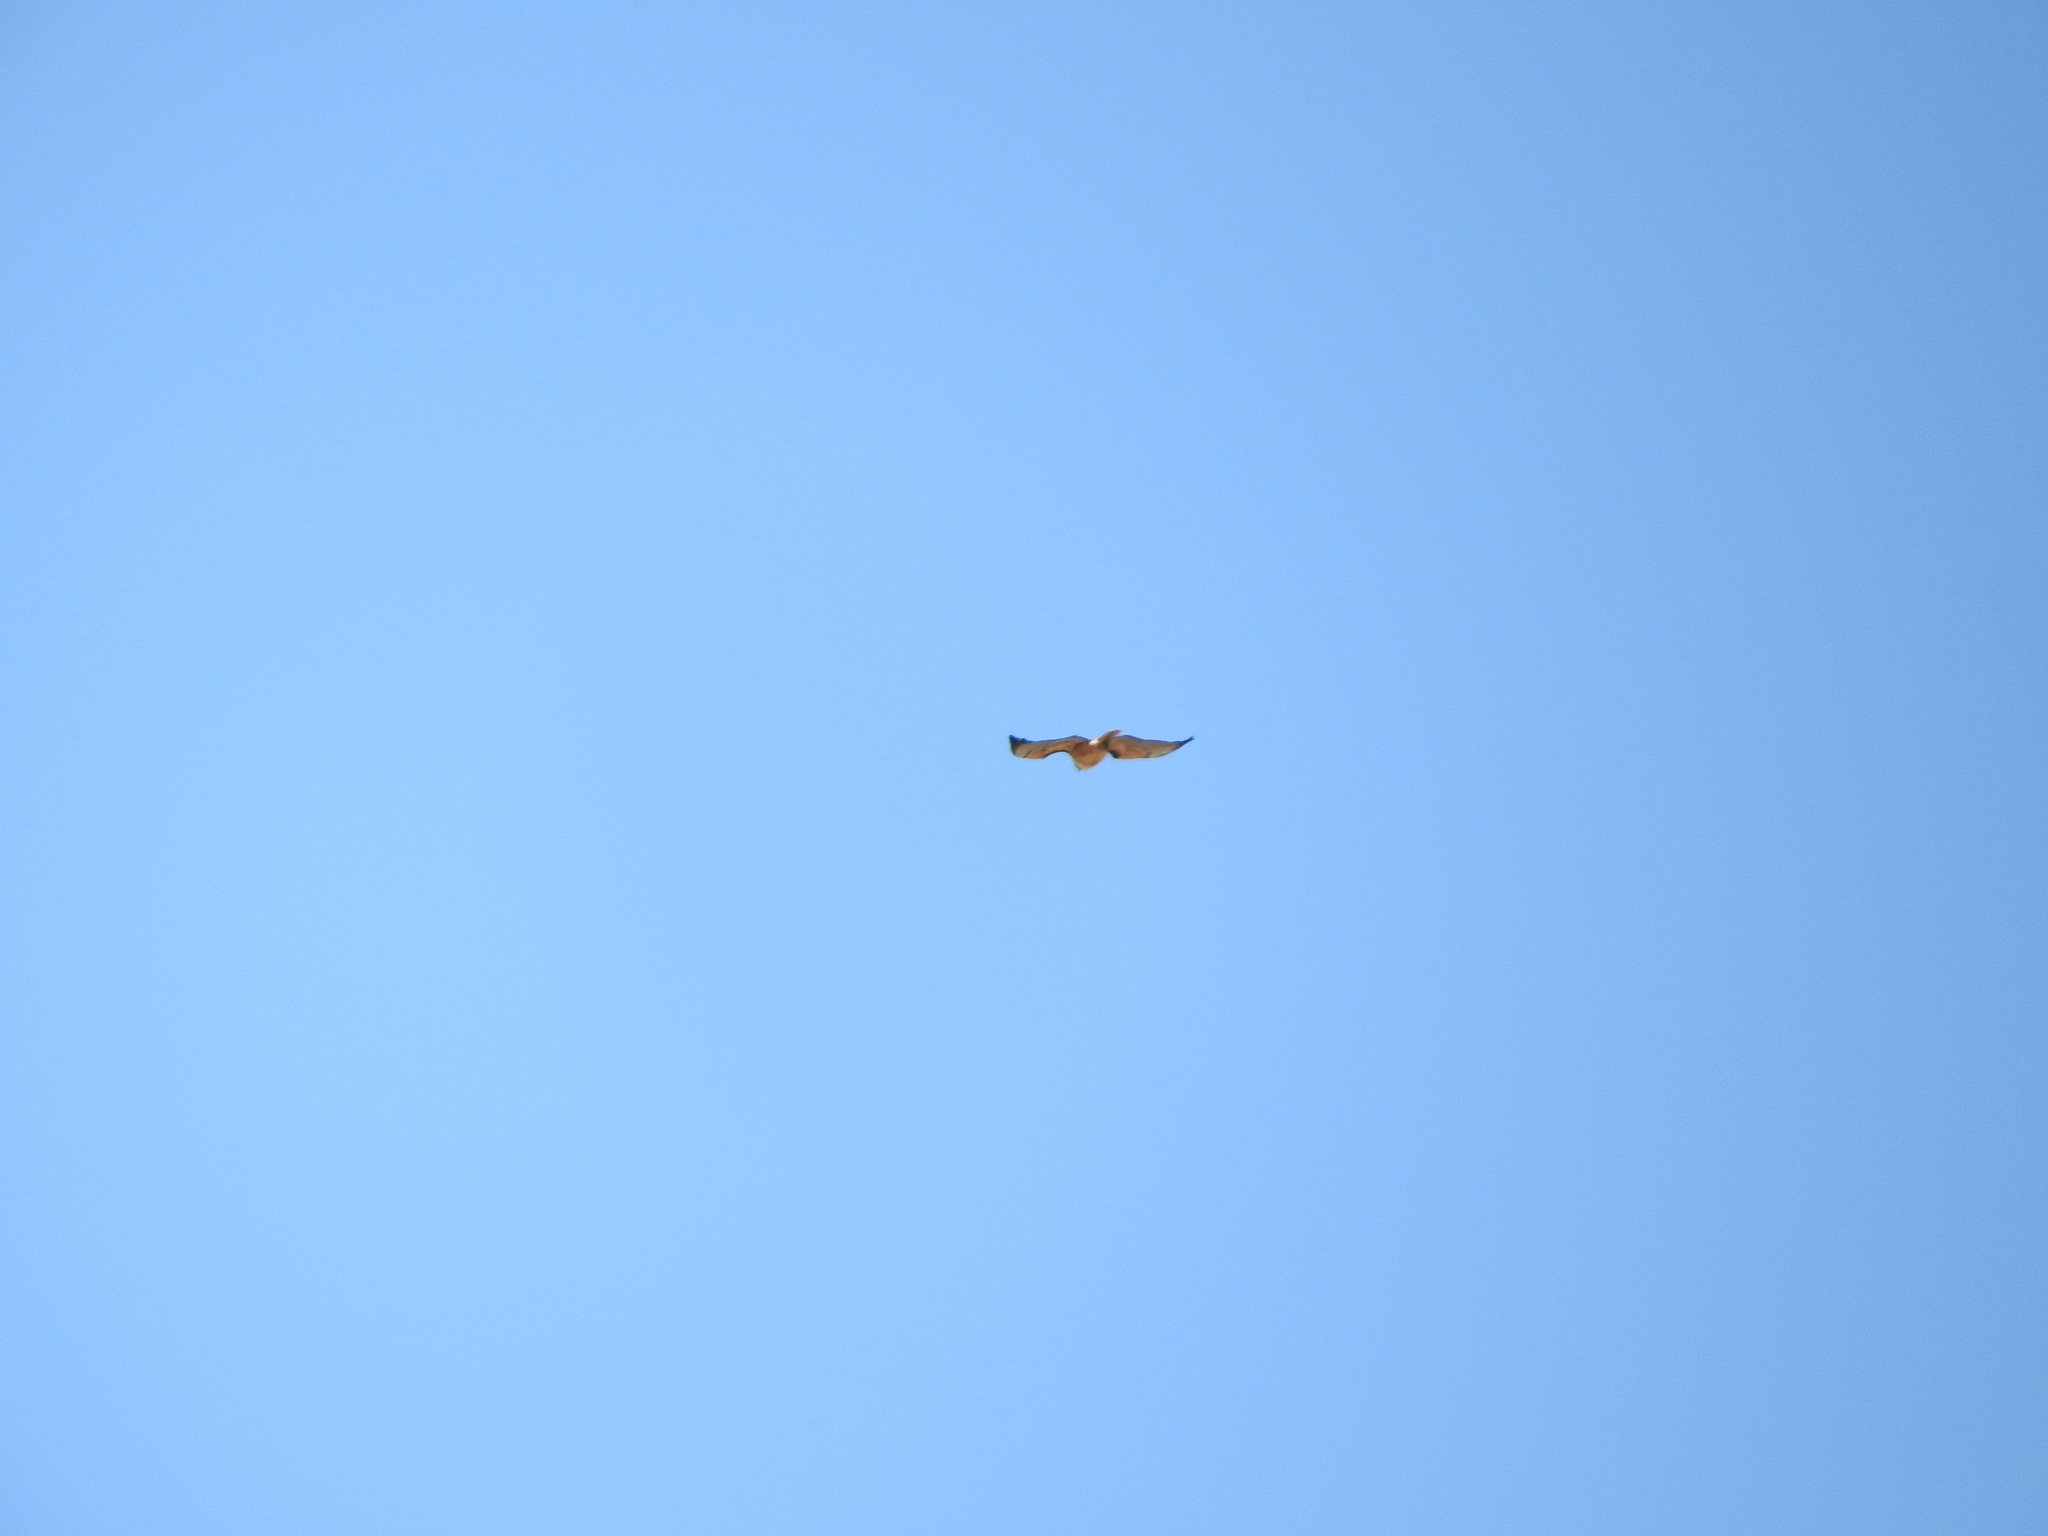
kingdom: Animalia
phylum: Chordata
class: Aves
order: Accipitriformes
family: Accipitridae
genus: Buteo
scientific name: Buteo jamaicensis
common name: Red-tailed hawk
